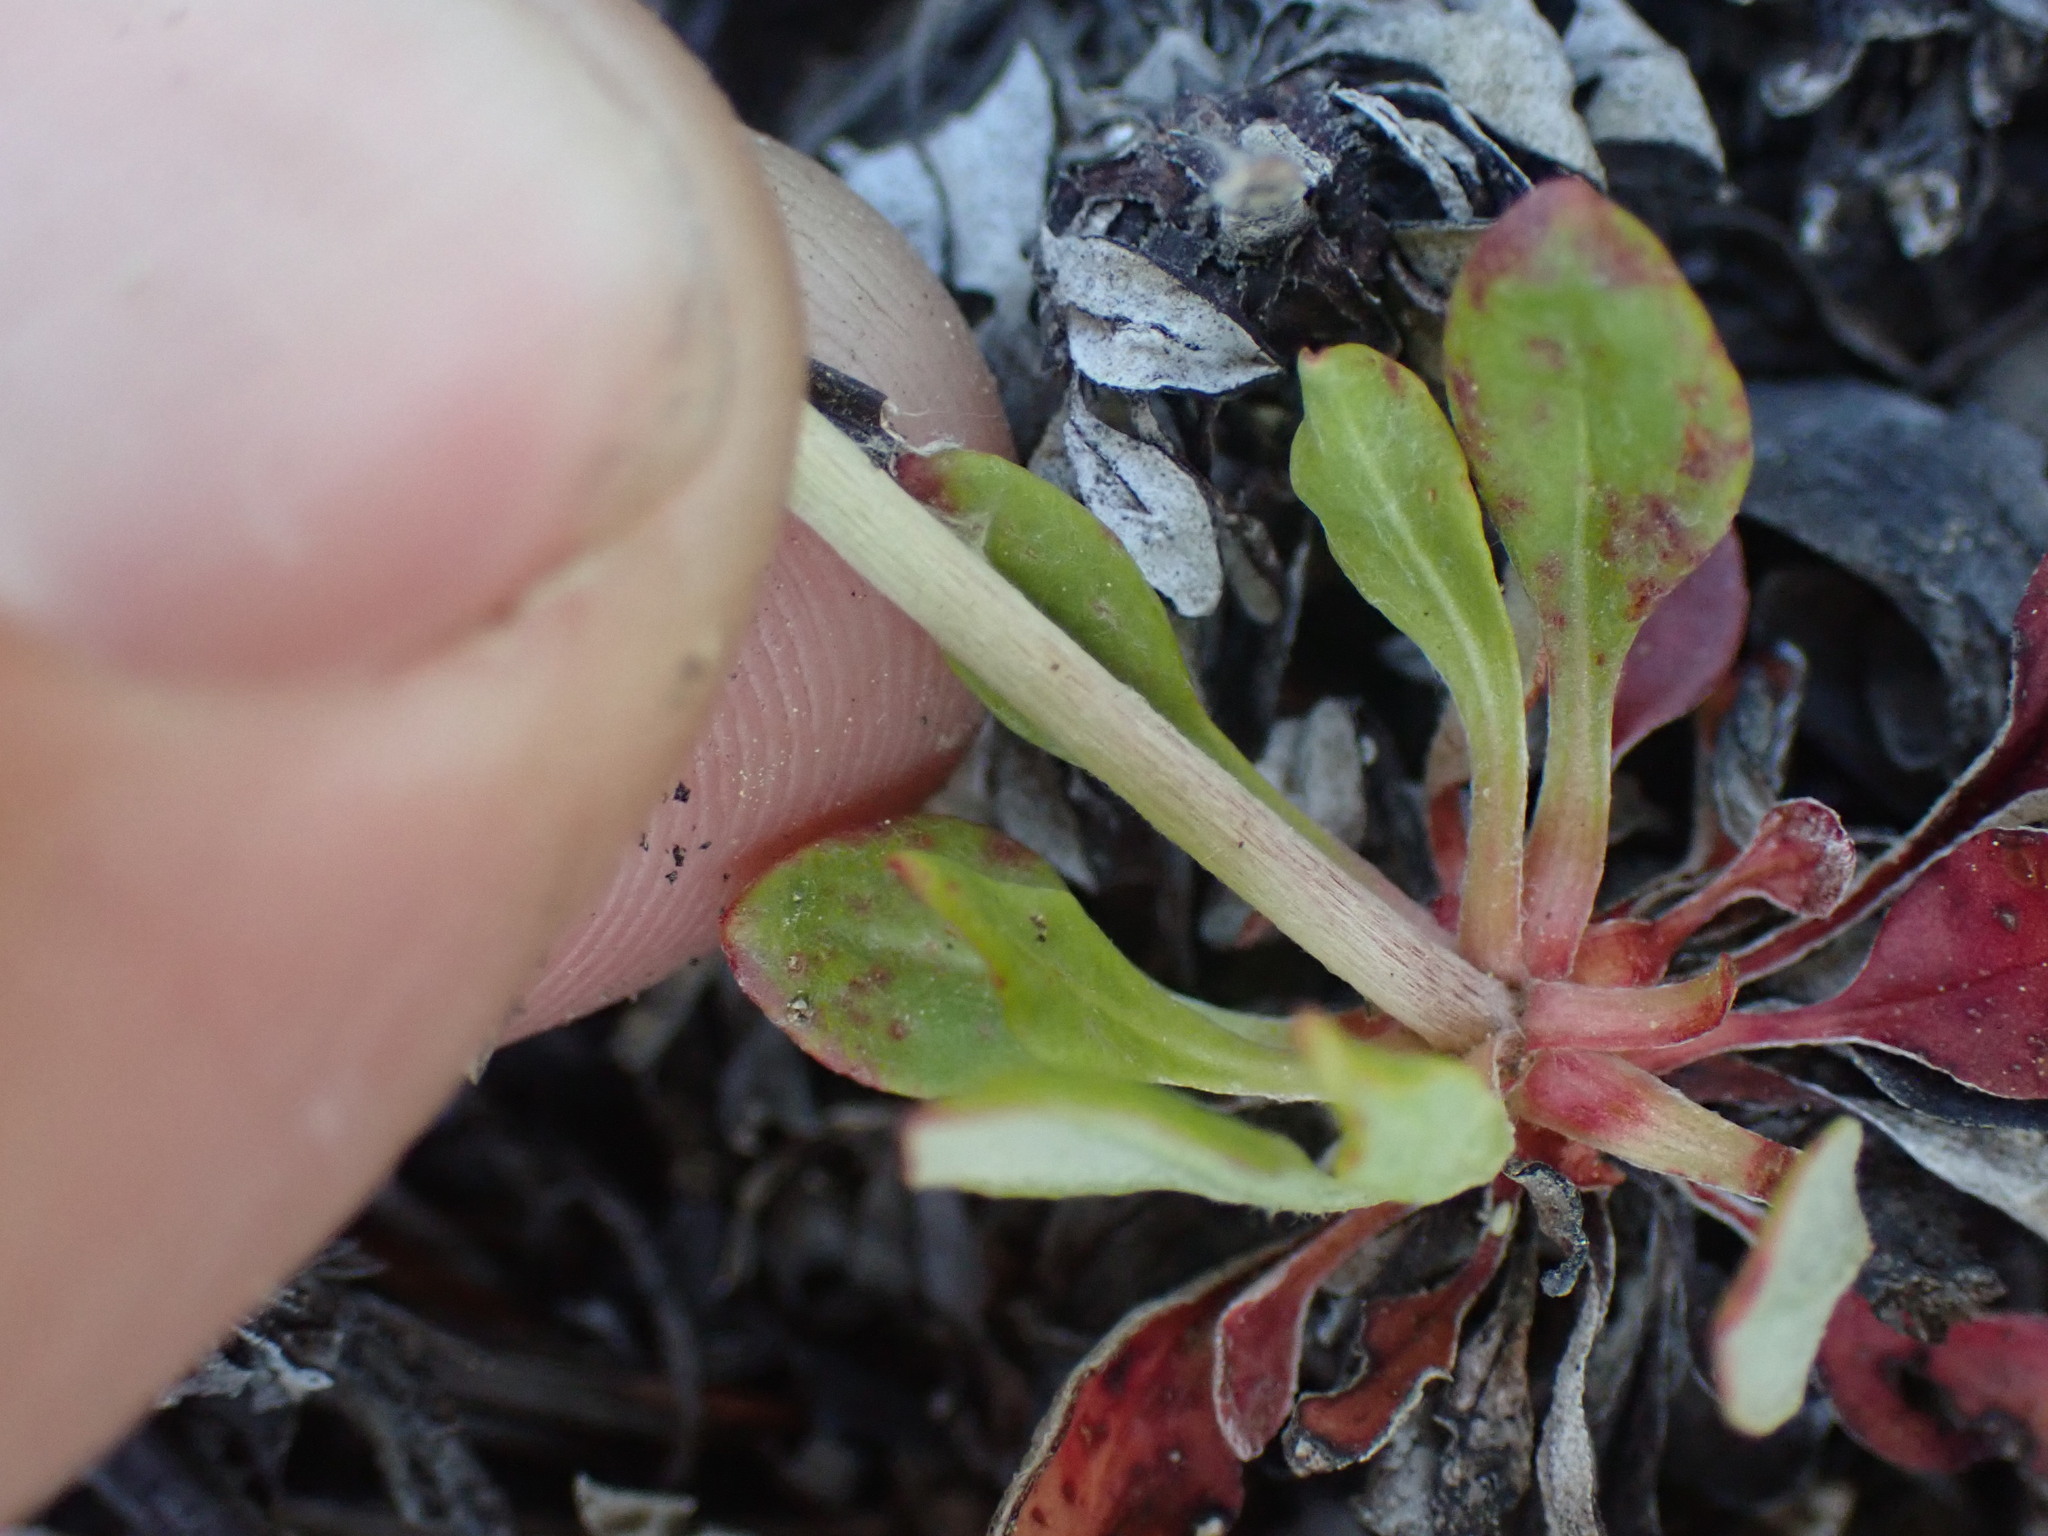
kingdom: Plantae
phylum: Tracheophyta
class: Magnoliopsida
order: Caryophyllales
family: Polygonaceae
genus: Eriogonum
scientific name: Eriogonum umbellatum
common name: Sulfur-buckwheat
